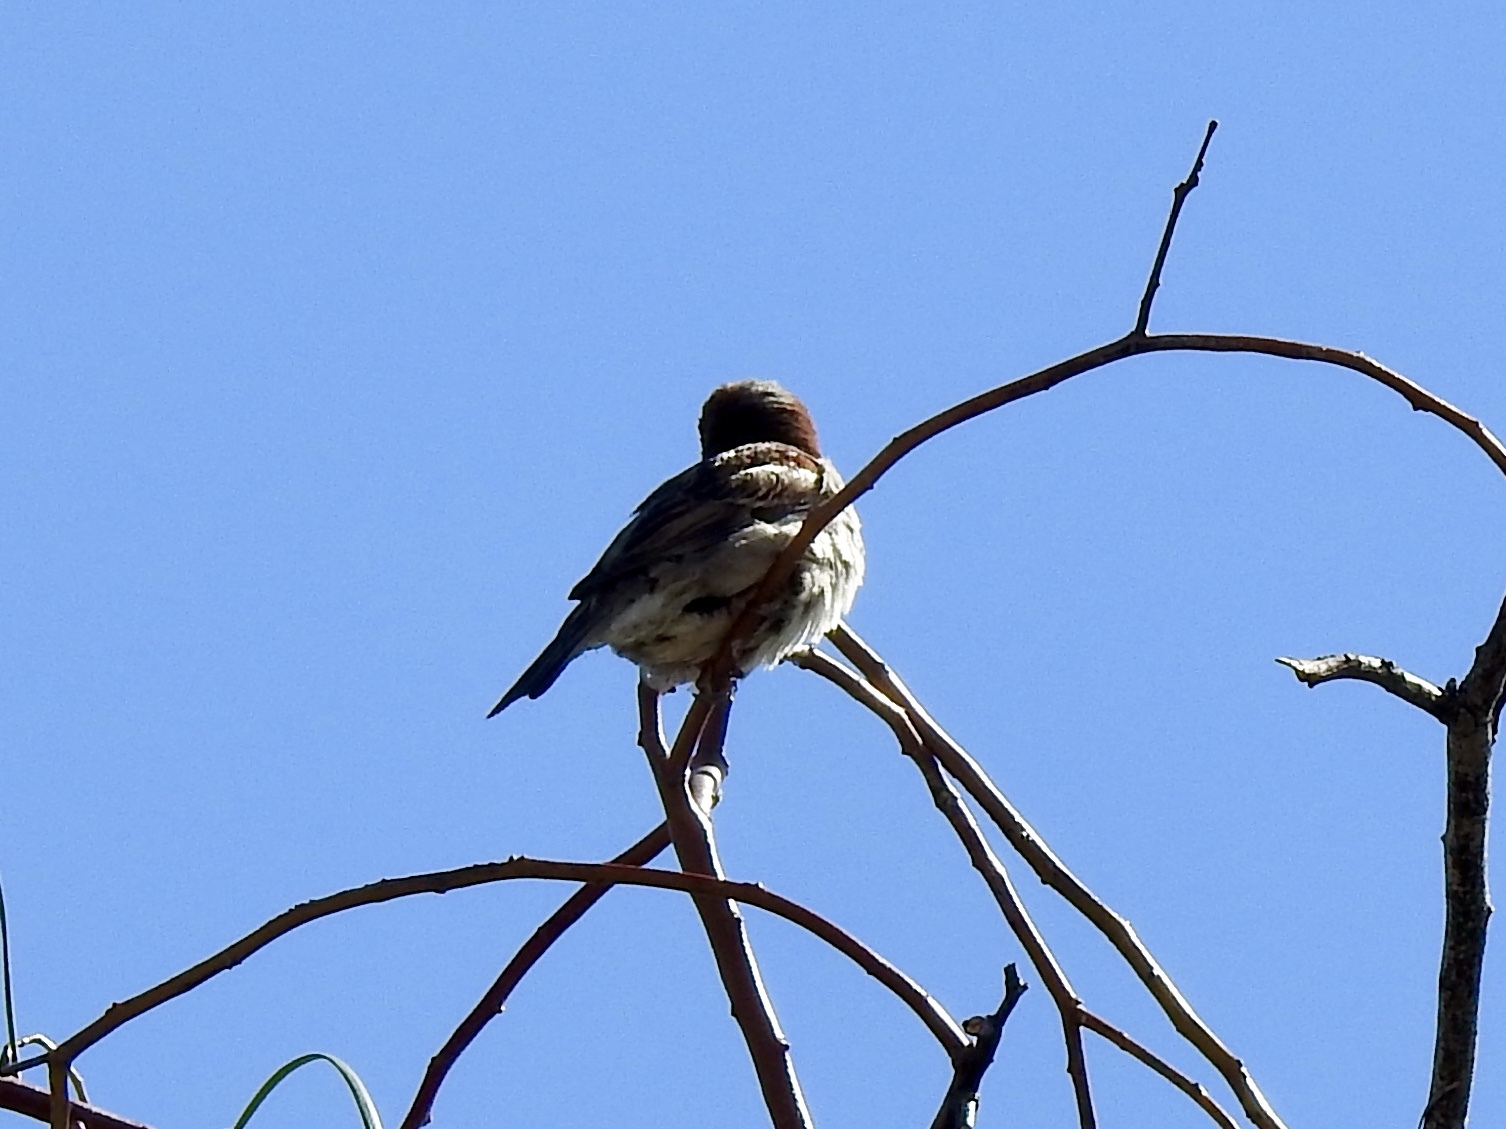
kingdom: Animalia
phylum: Chordata
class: Aves
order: Passeriformes
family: Passeridae
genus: Passer
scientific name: Passer domesticus
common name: House sparrow
